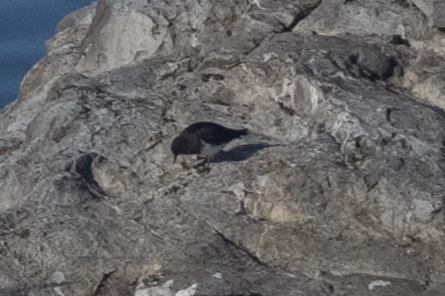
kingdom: Animalia
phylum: Chordata
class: Aves
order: Charadriiformes
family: Scolopacidae
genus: Arenaria
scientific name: Arenaria melanocephala
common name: Black turnstone
